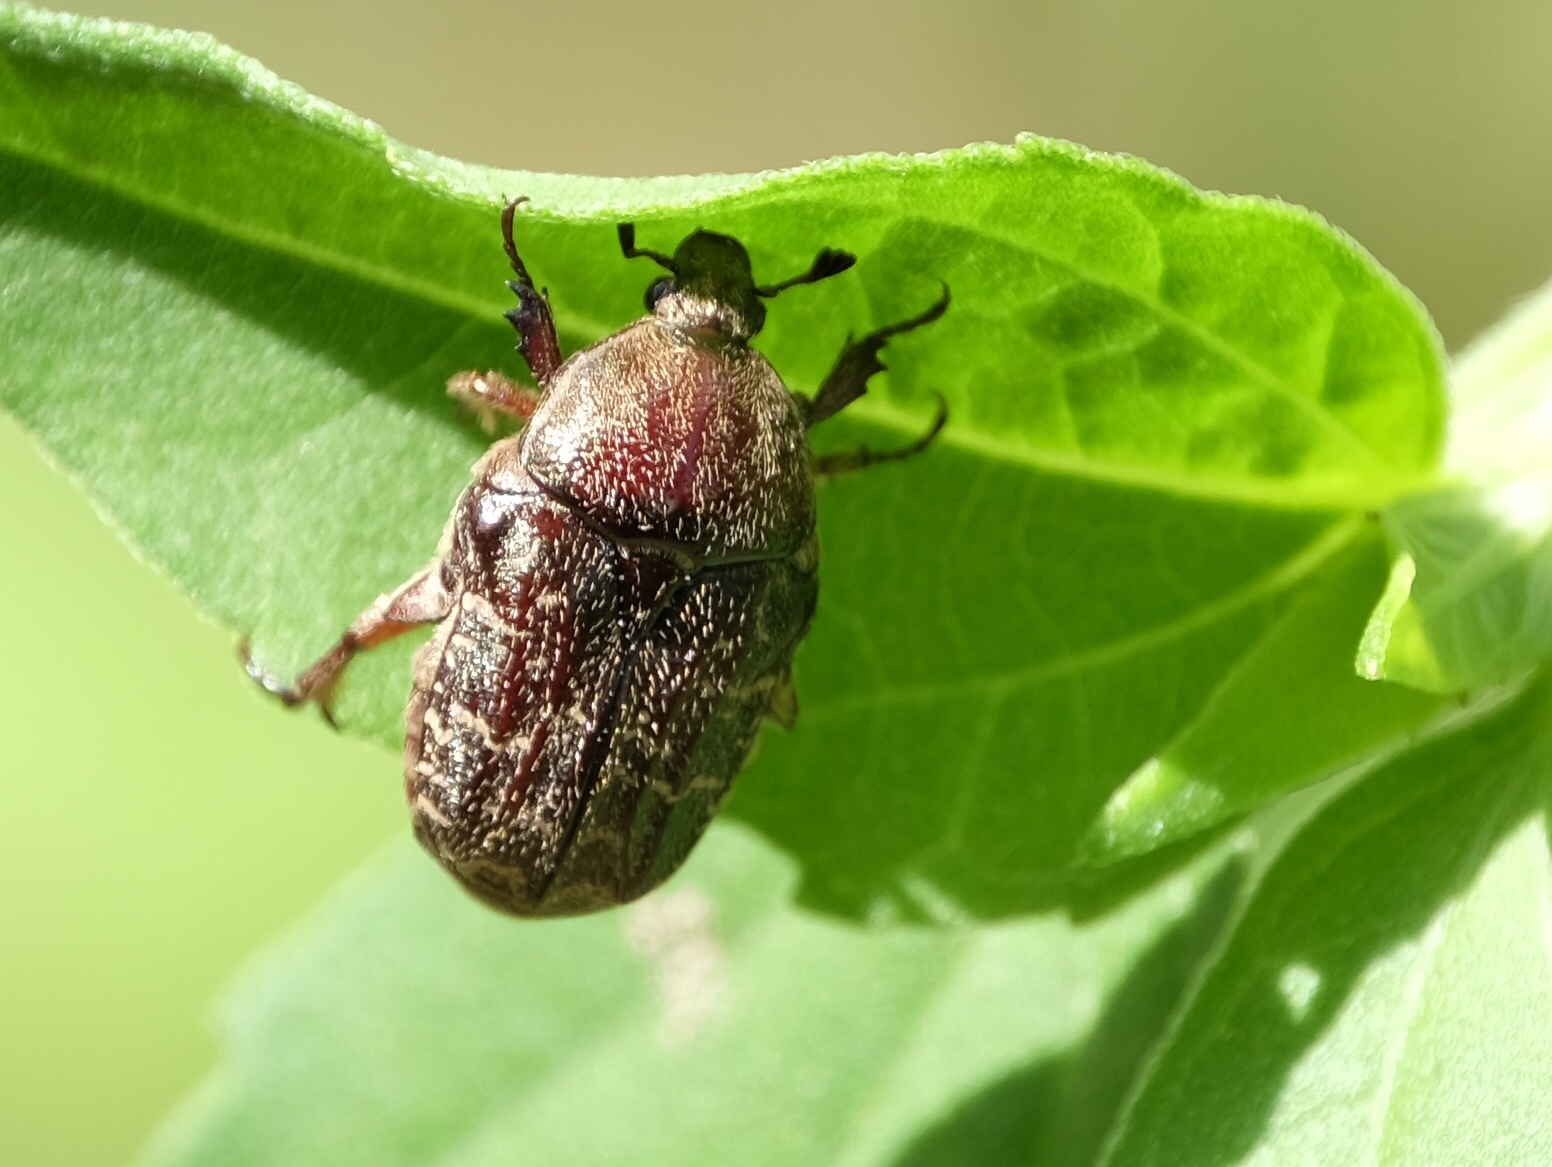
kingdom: Animalia
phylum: Arthropoda
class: Insecta
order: Coleoptera
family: Scarabaeidae
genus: Euphoria
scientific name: Euphoria sepulcralis
